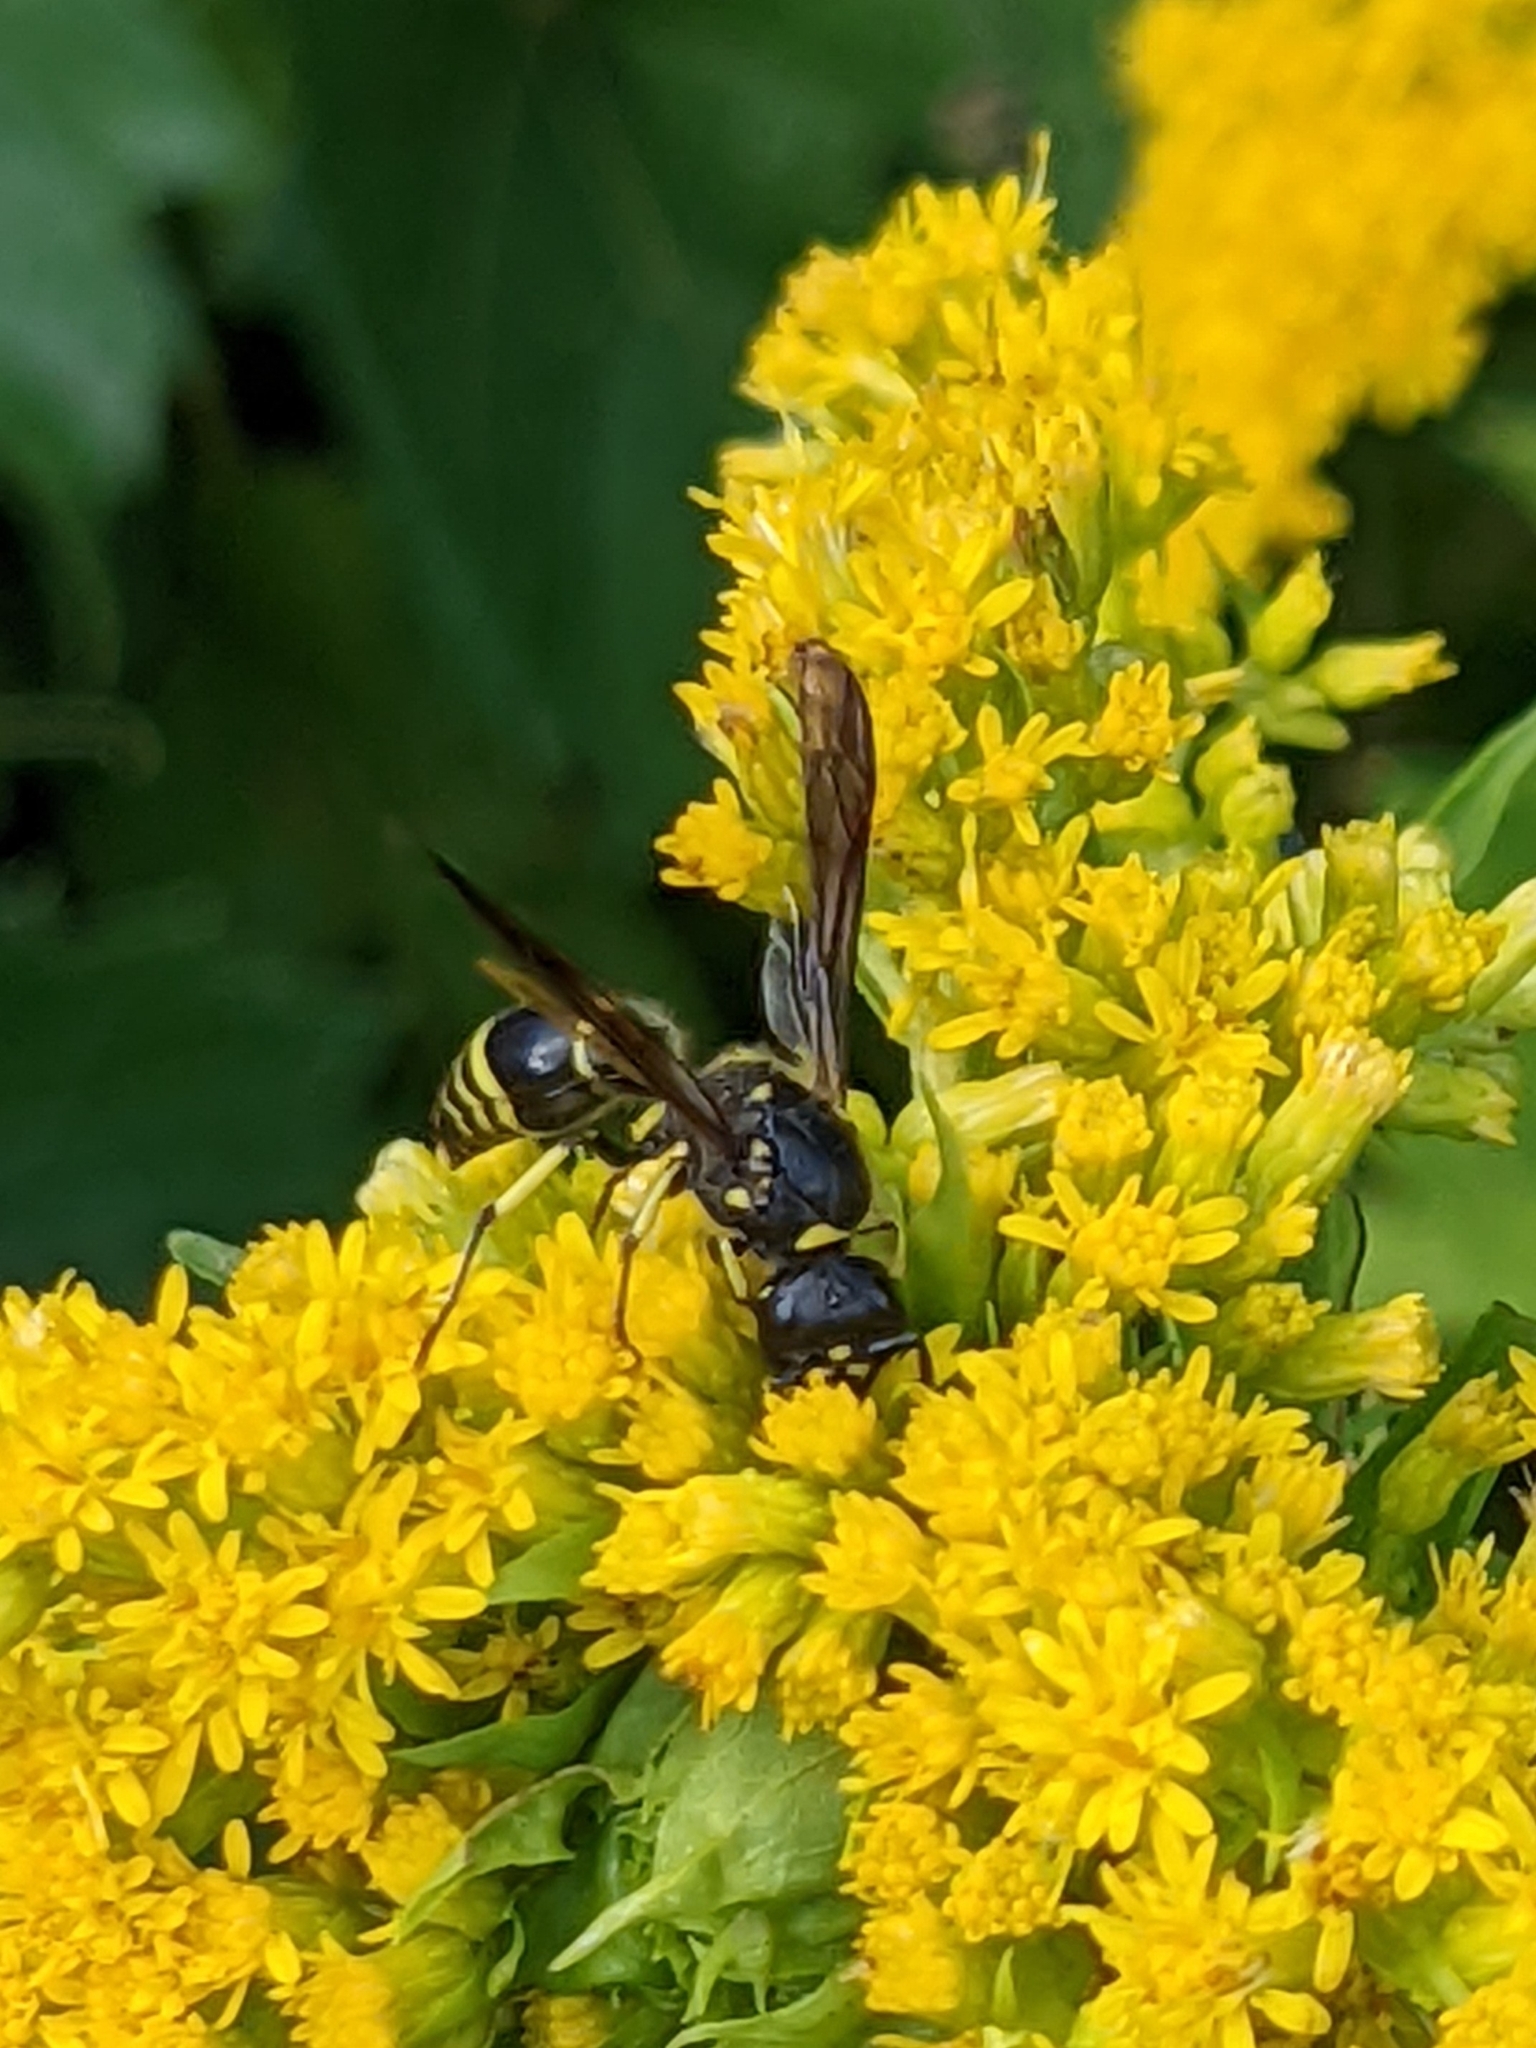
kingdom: Animalia
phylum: Arthropoda
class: Insecta
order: Hymenoptera
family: Vespidae
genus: Ancistrocerus
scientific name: Ancistrocerus
